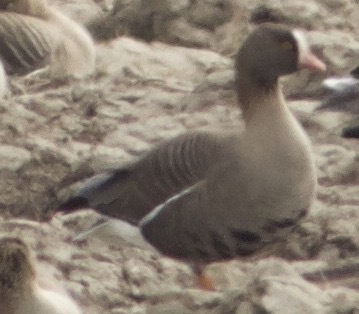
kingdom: Animalia
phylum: Chordata
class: Aves
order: Anseriformes
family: Anatidae
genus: Anser
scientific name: Anser erythropus
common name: Lesser white-fronted goose
